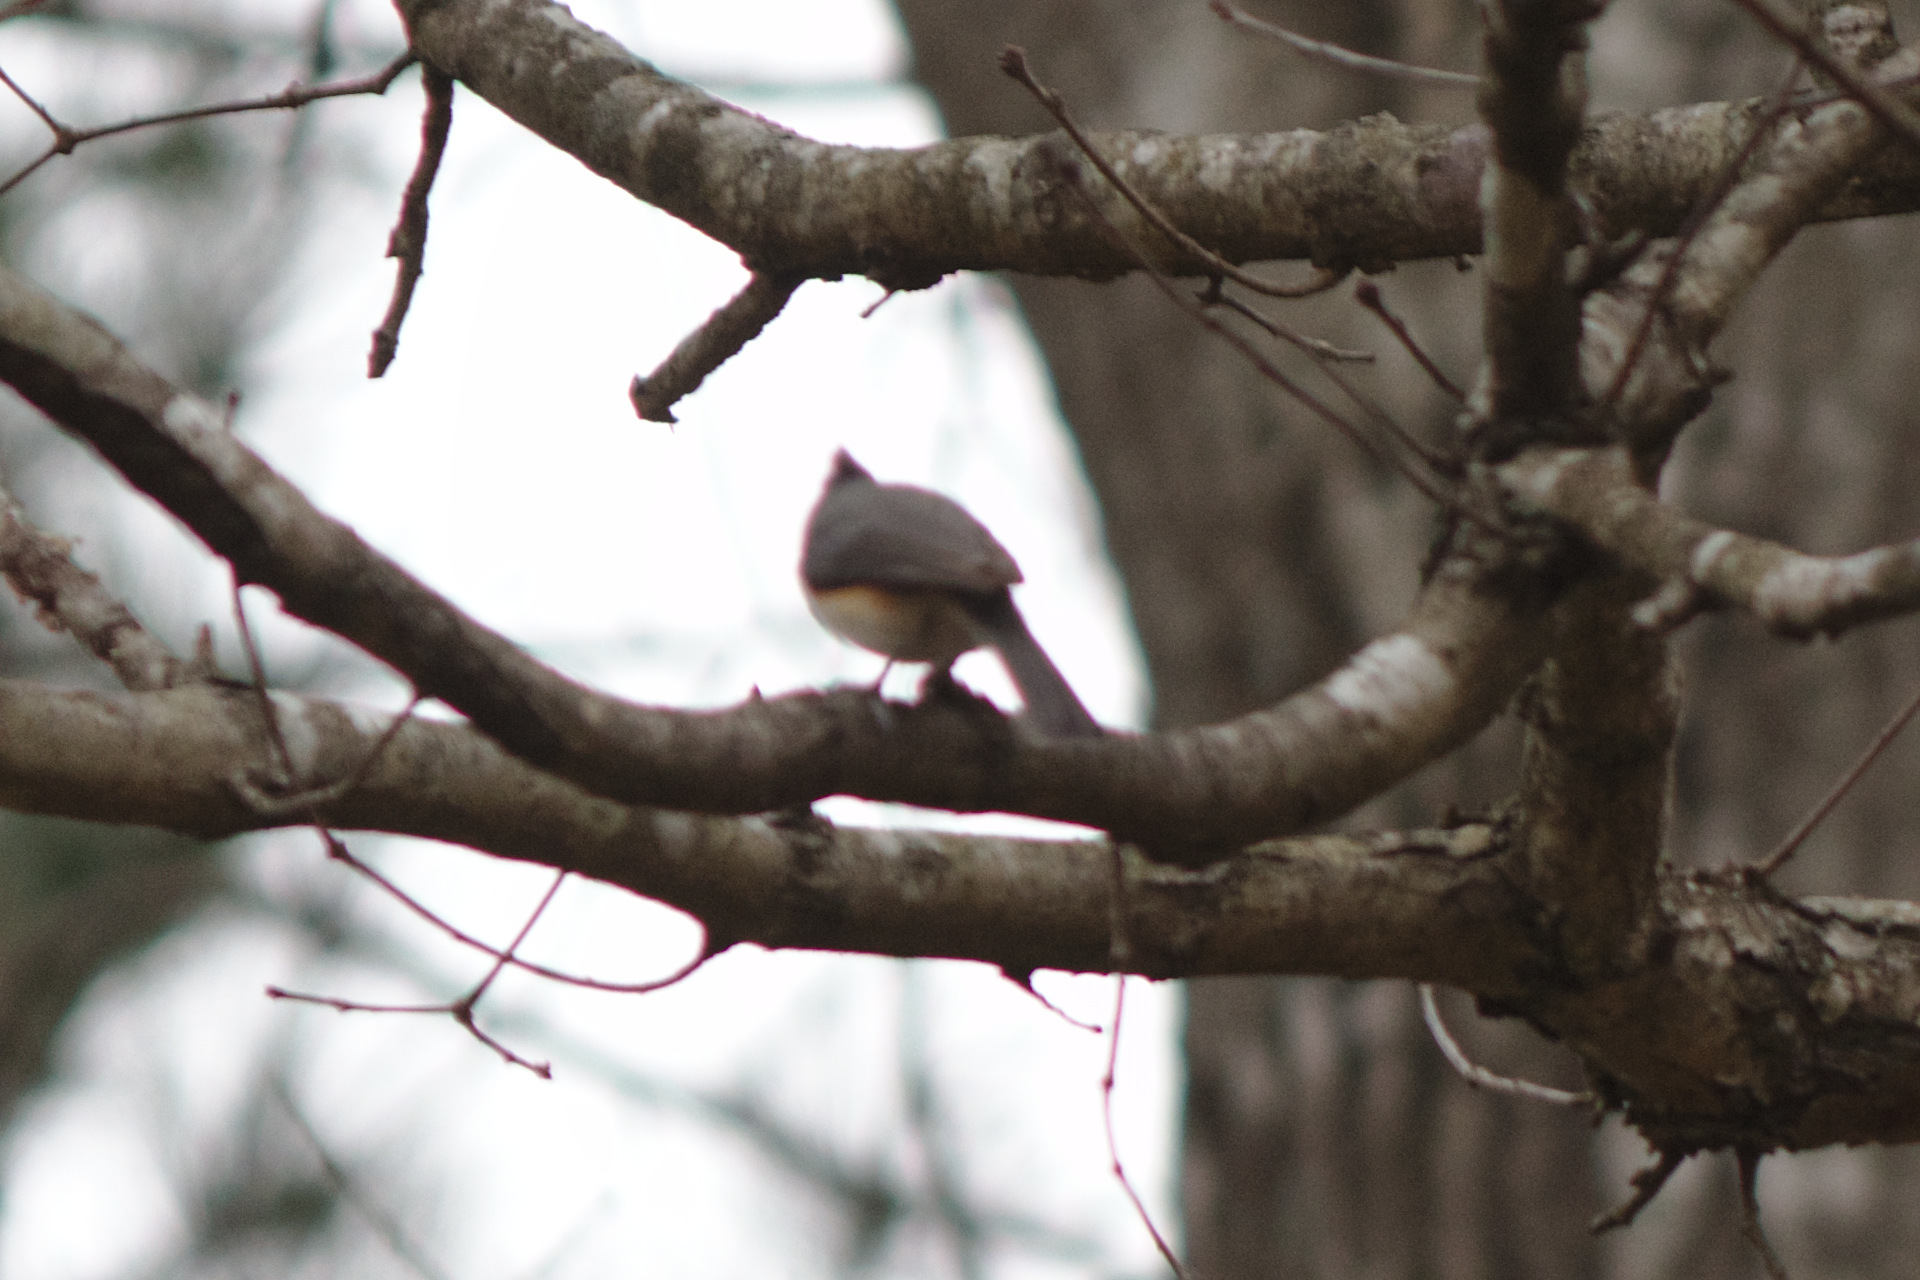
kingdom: Animalia
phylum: Chordata
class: Aves
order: Passeriformes
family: Paridae
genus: Baeolophus
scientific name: Baeolophus bicolor
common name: Tufted titmouse
